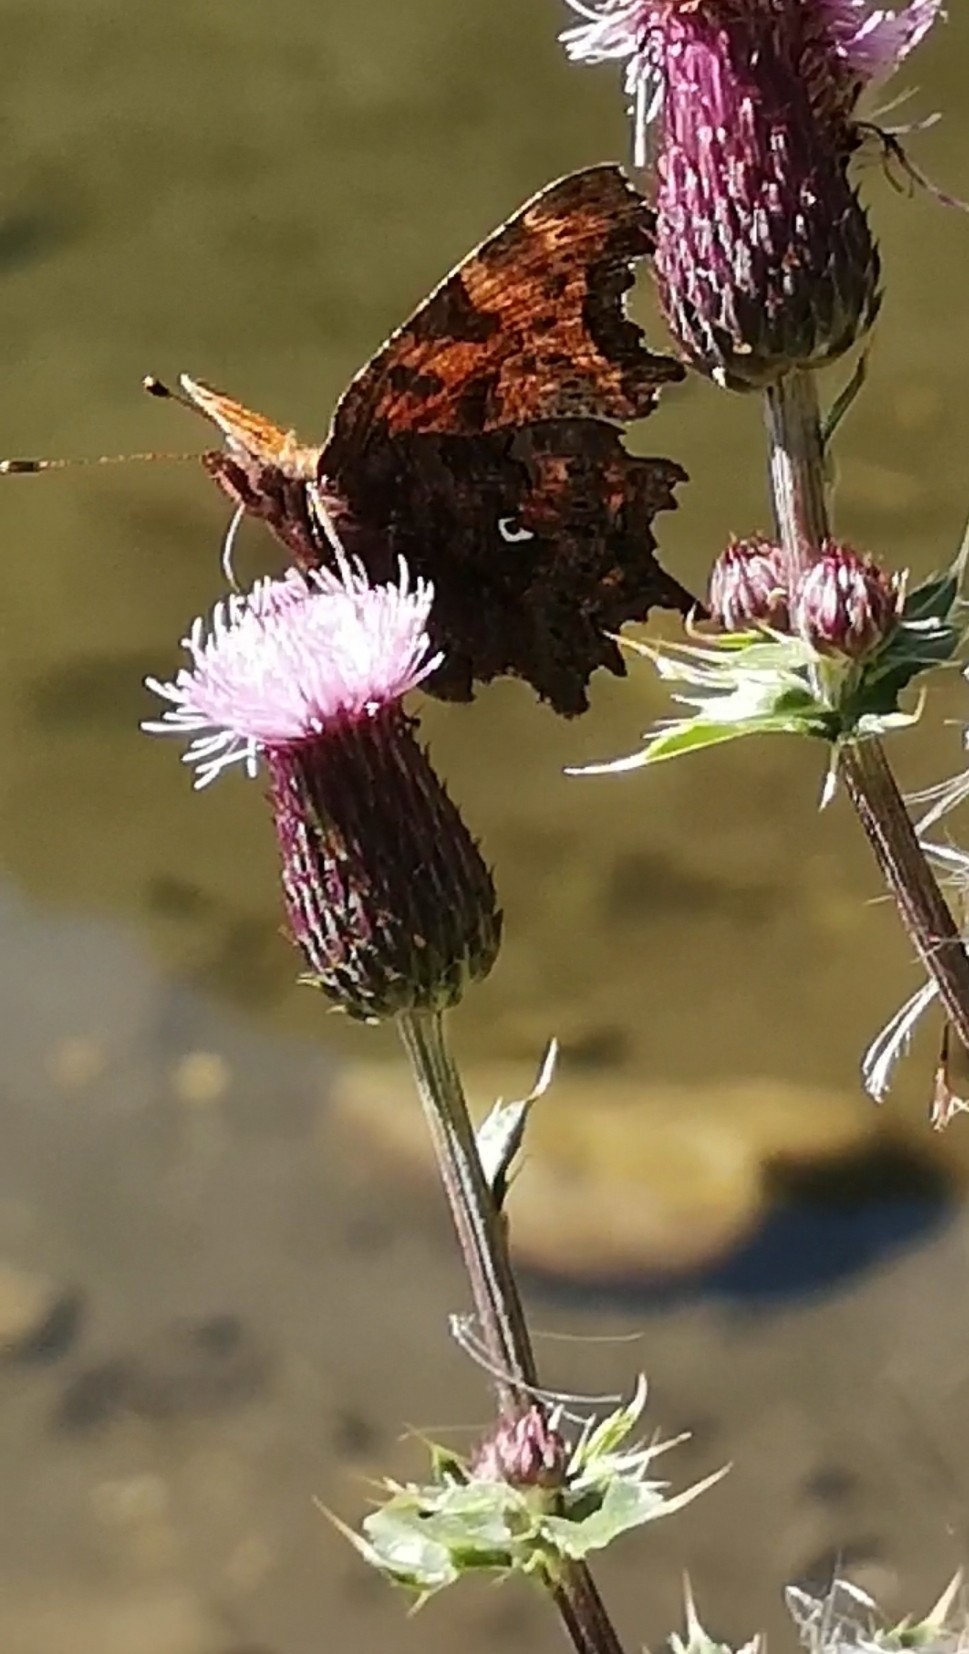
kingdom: Animalia
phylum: Arthropoda
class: Insecta
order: Lepidoptera
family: Nymphalidae
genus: Polygonia
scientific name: Polygonia c-album
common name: Comma
